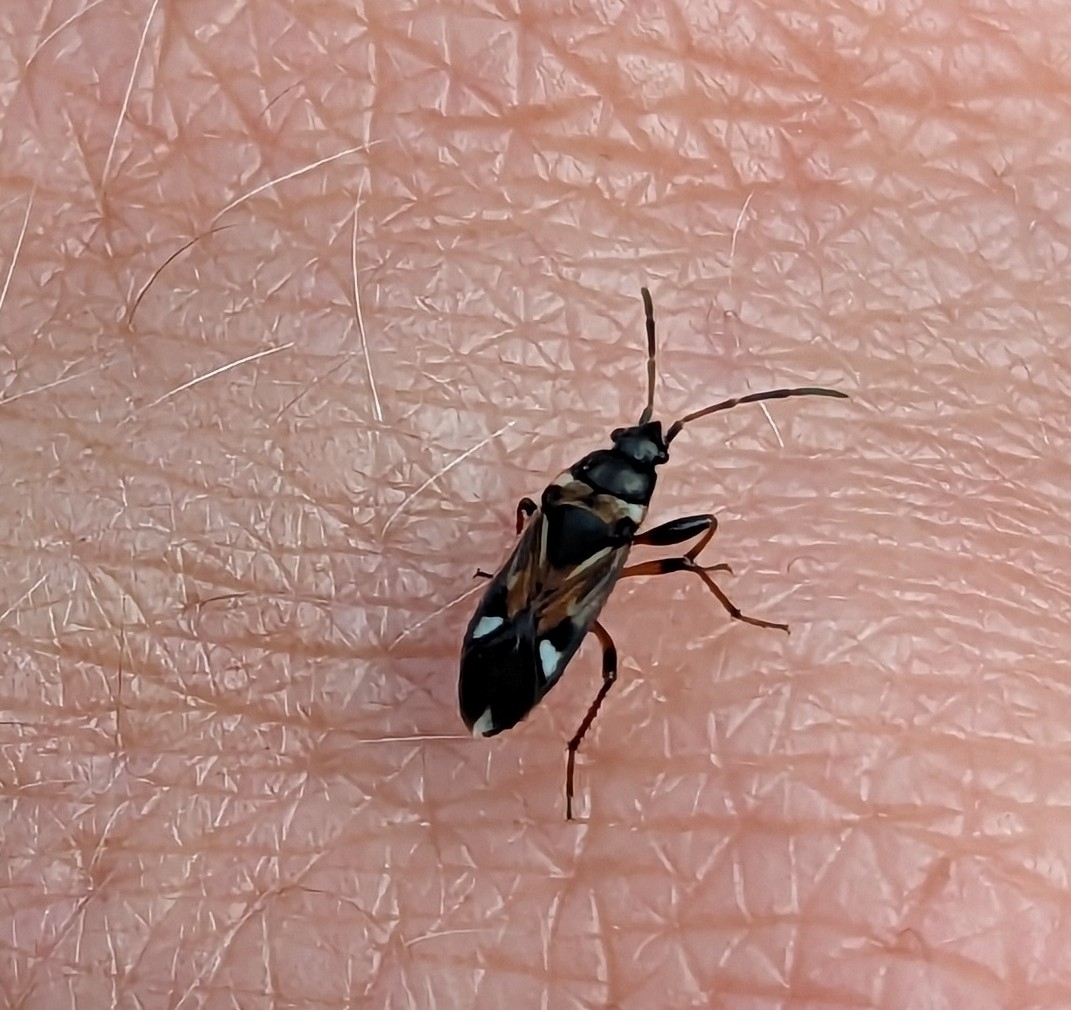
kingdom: Animalia
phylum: Arthropoda
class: Insecta
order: Hemiptera
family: Rhyparochromidae
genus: Raglius
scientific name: Raglius alboacuminatus
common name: Dirt-colored seed bug
